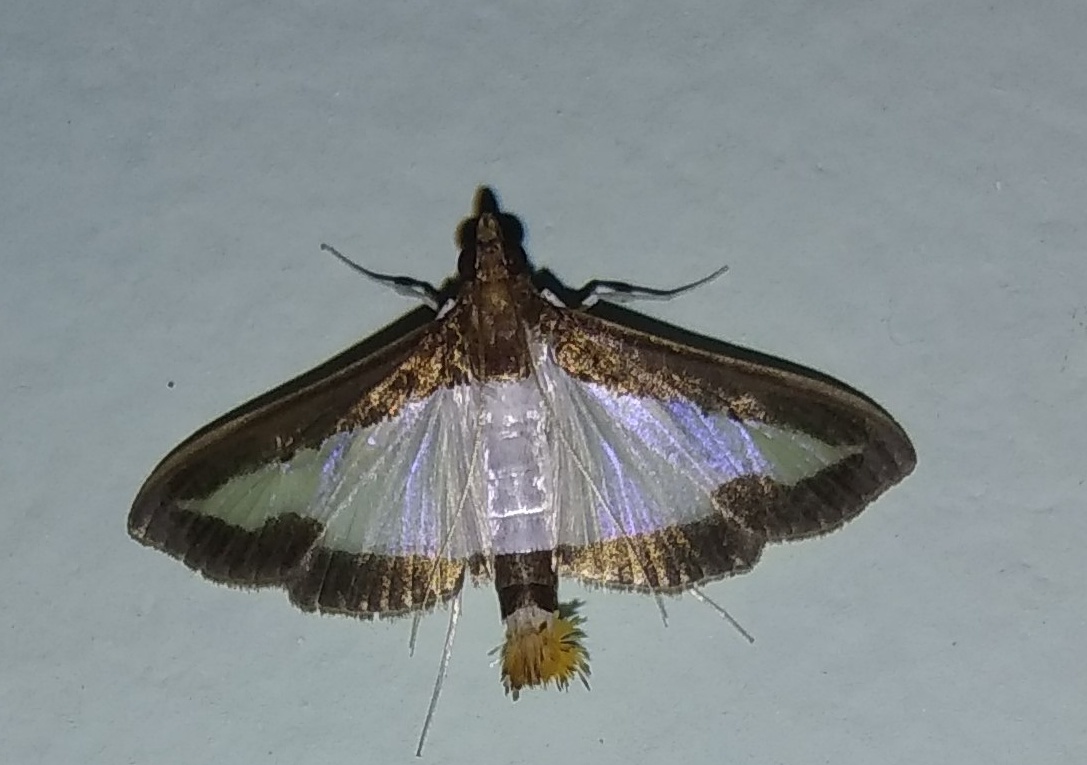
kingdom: Animalia
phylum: Arthropoda
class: Insecta
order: Lepidoptera
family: Crambidae
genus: Diaphania
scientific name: Diaphania indica
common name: Cucumber moth
